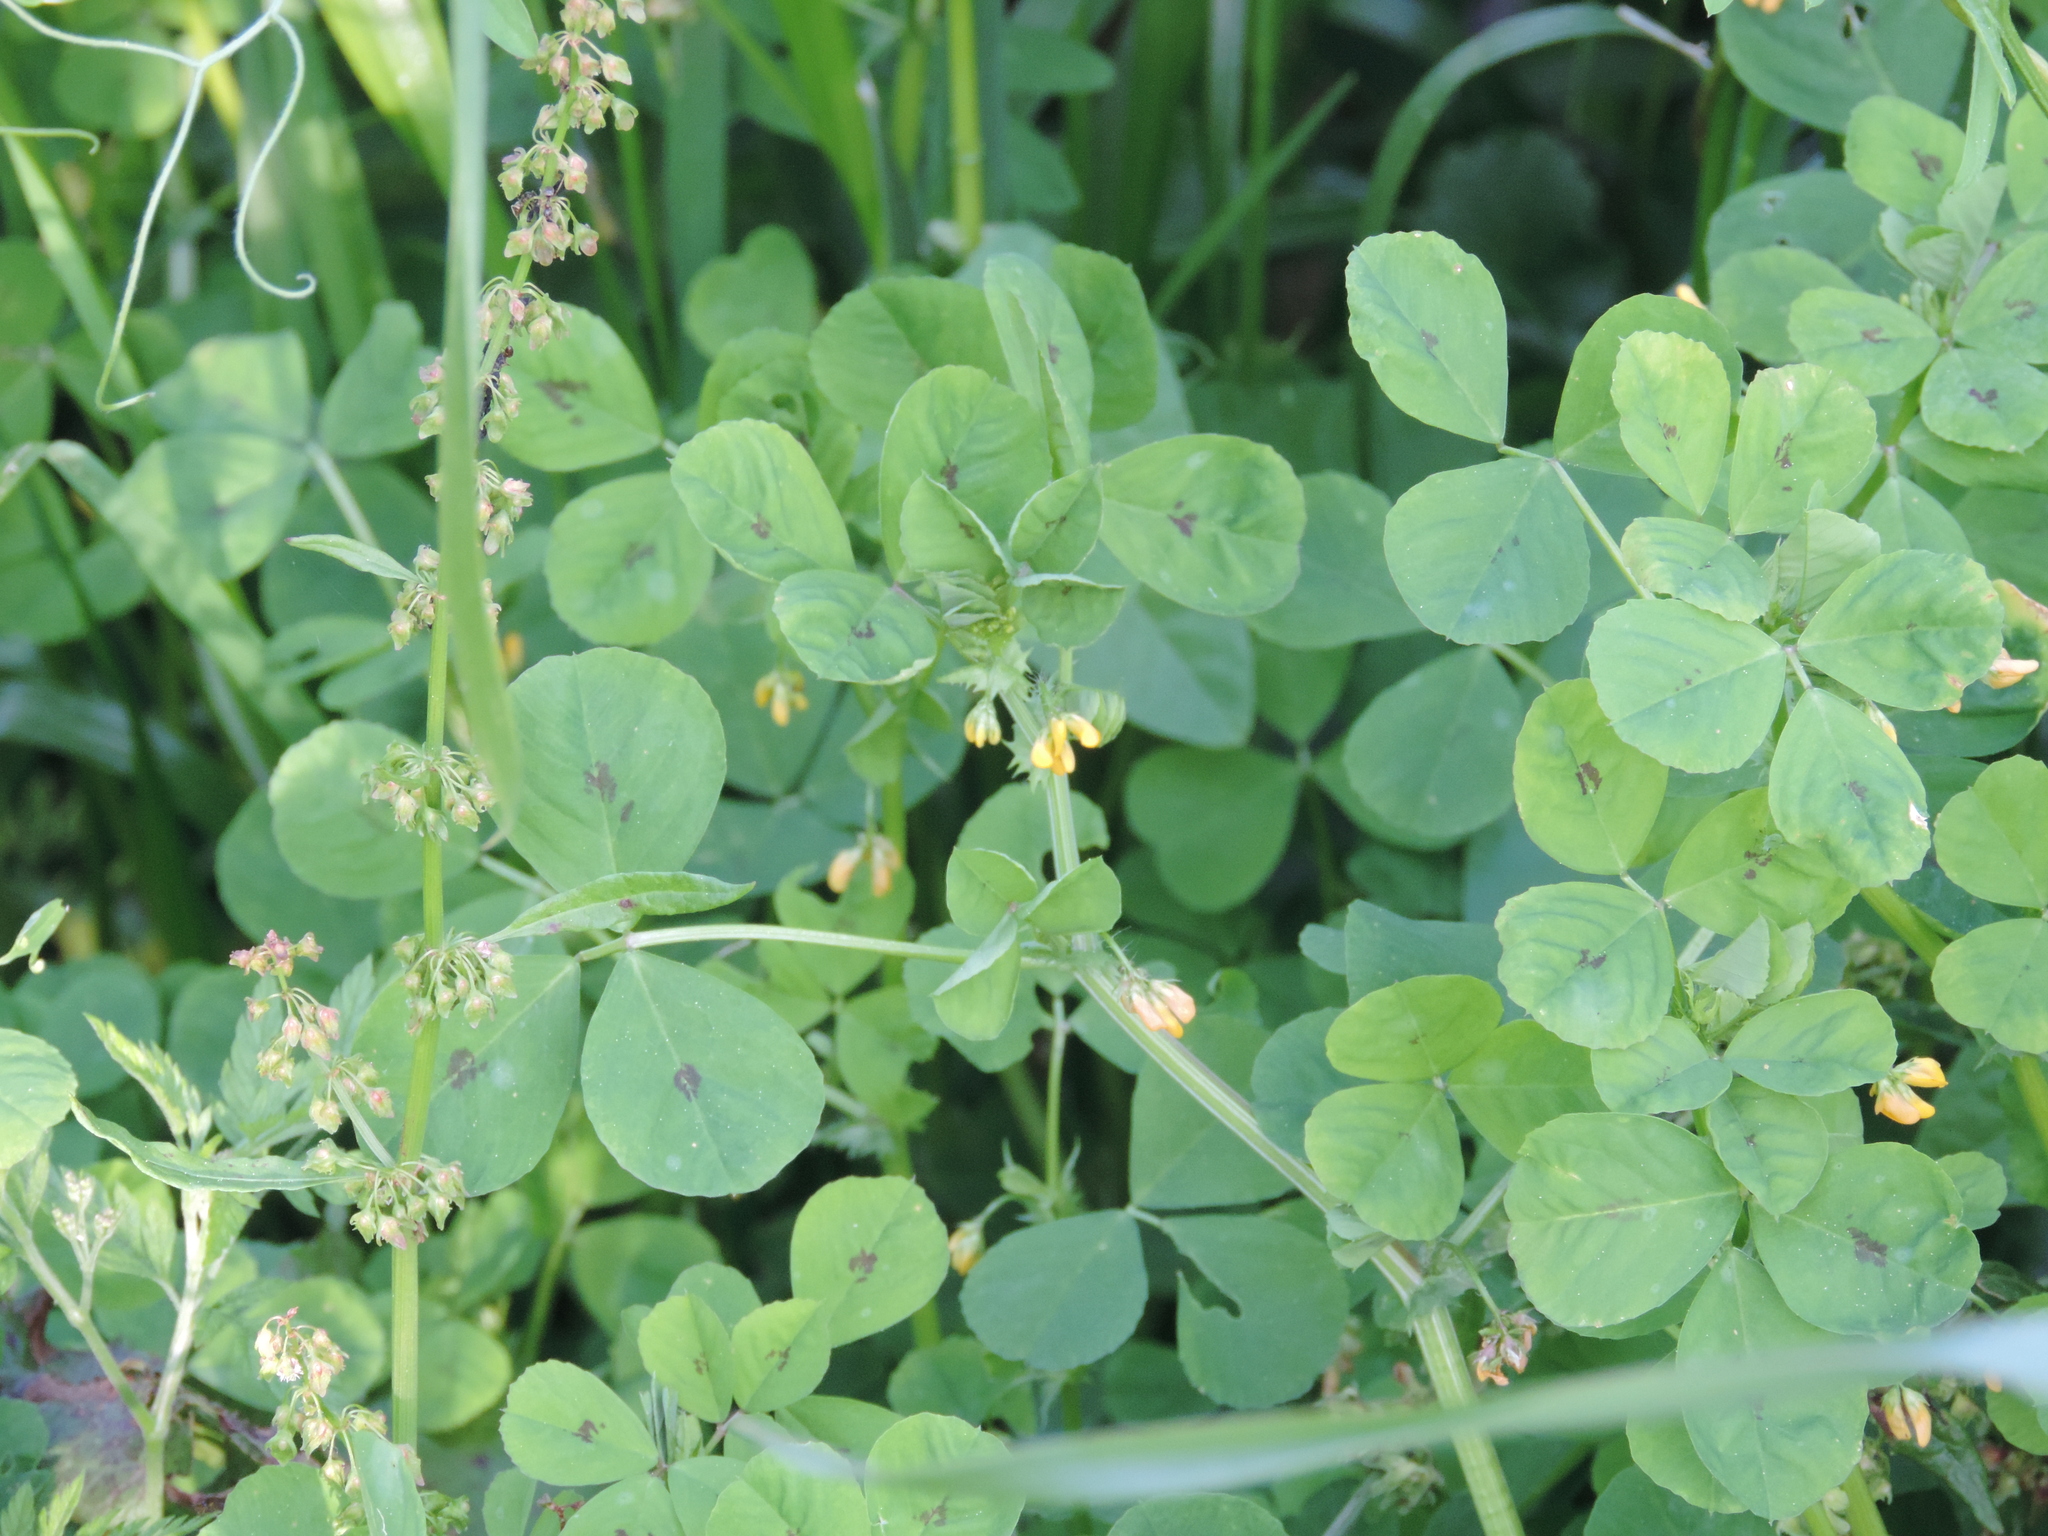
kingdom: Plantae
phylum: Tracheophyta
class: Magnoliopsida
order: Fabales
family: Fabaceae
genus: Medicago
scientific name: Medicago arabica
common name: Spotted medick
